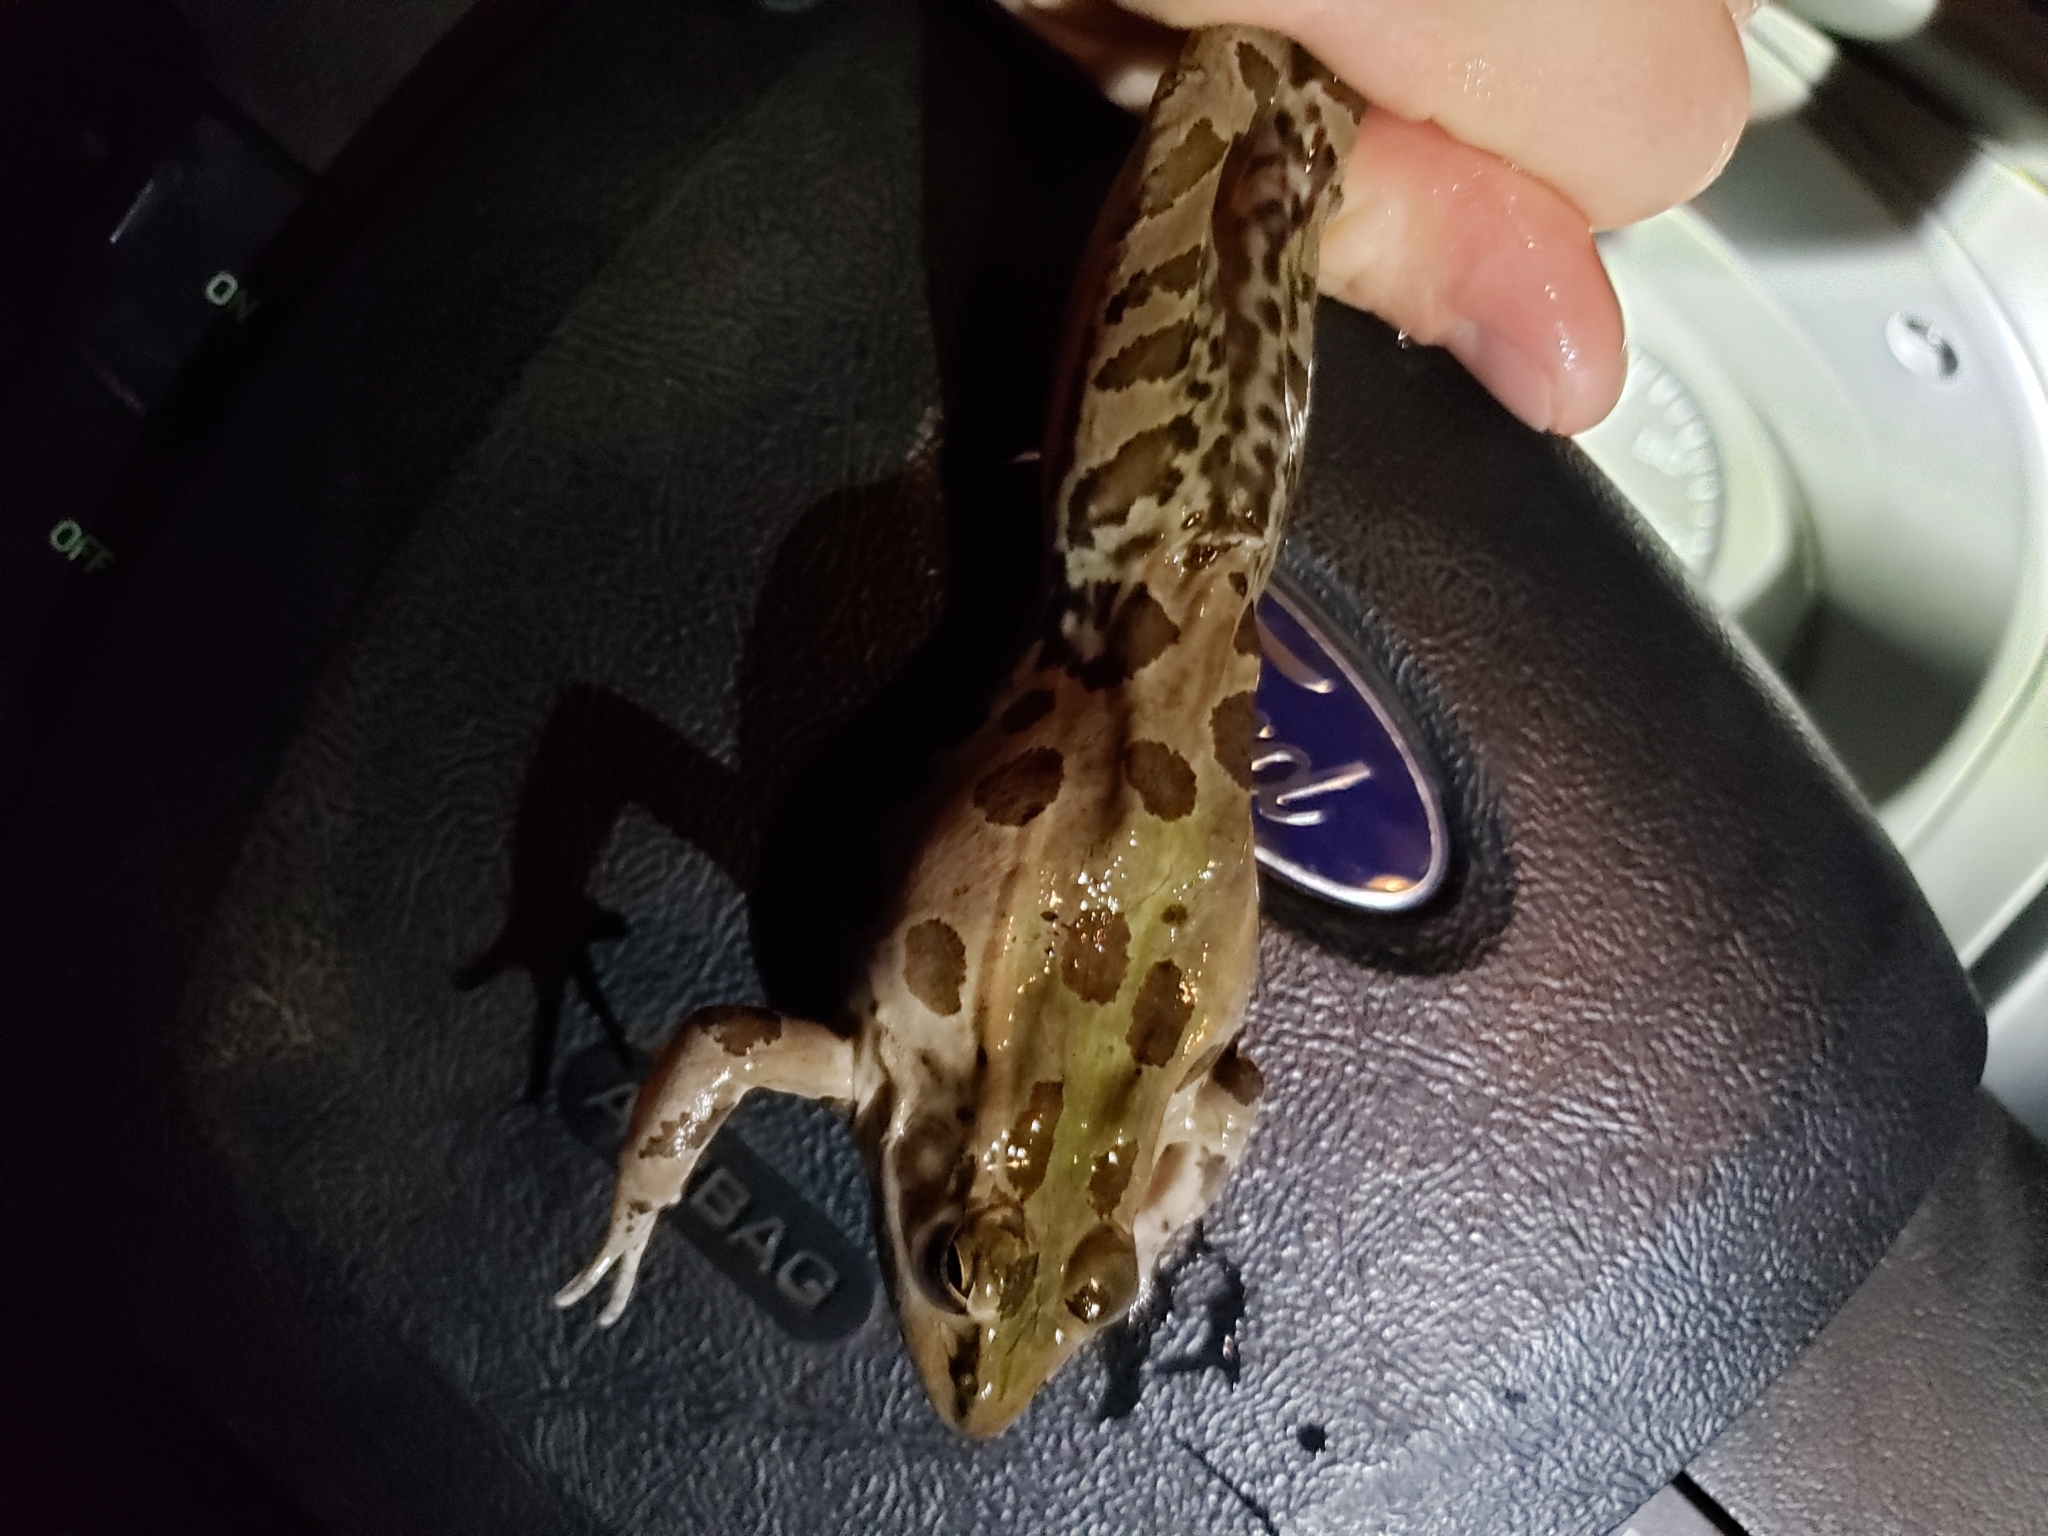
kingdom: Animalia
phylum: Chordata
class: Amphibia
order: Anura
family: Ranidae
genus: Lithobates
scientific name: Lithobates sphenocephalus
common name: Southern leopard frog
